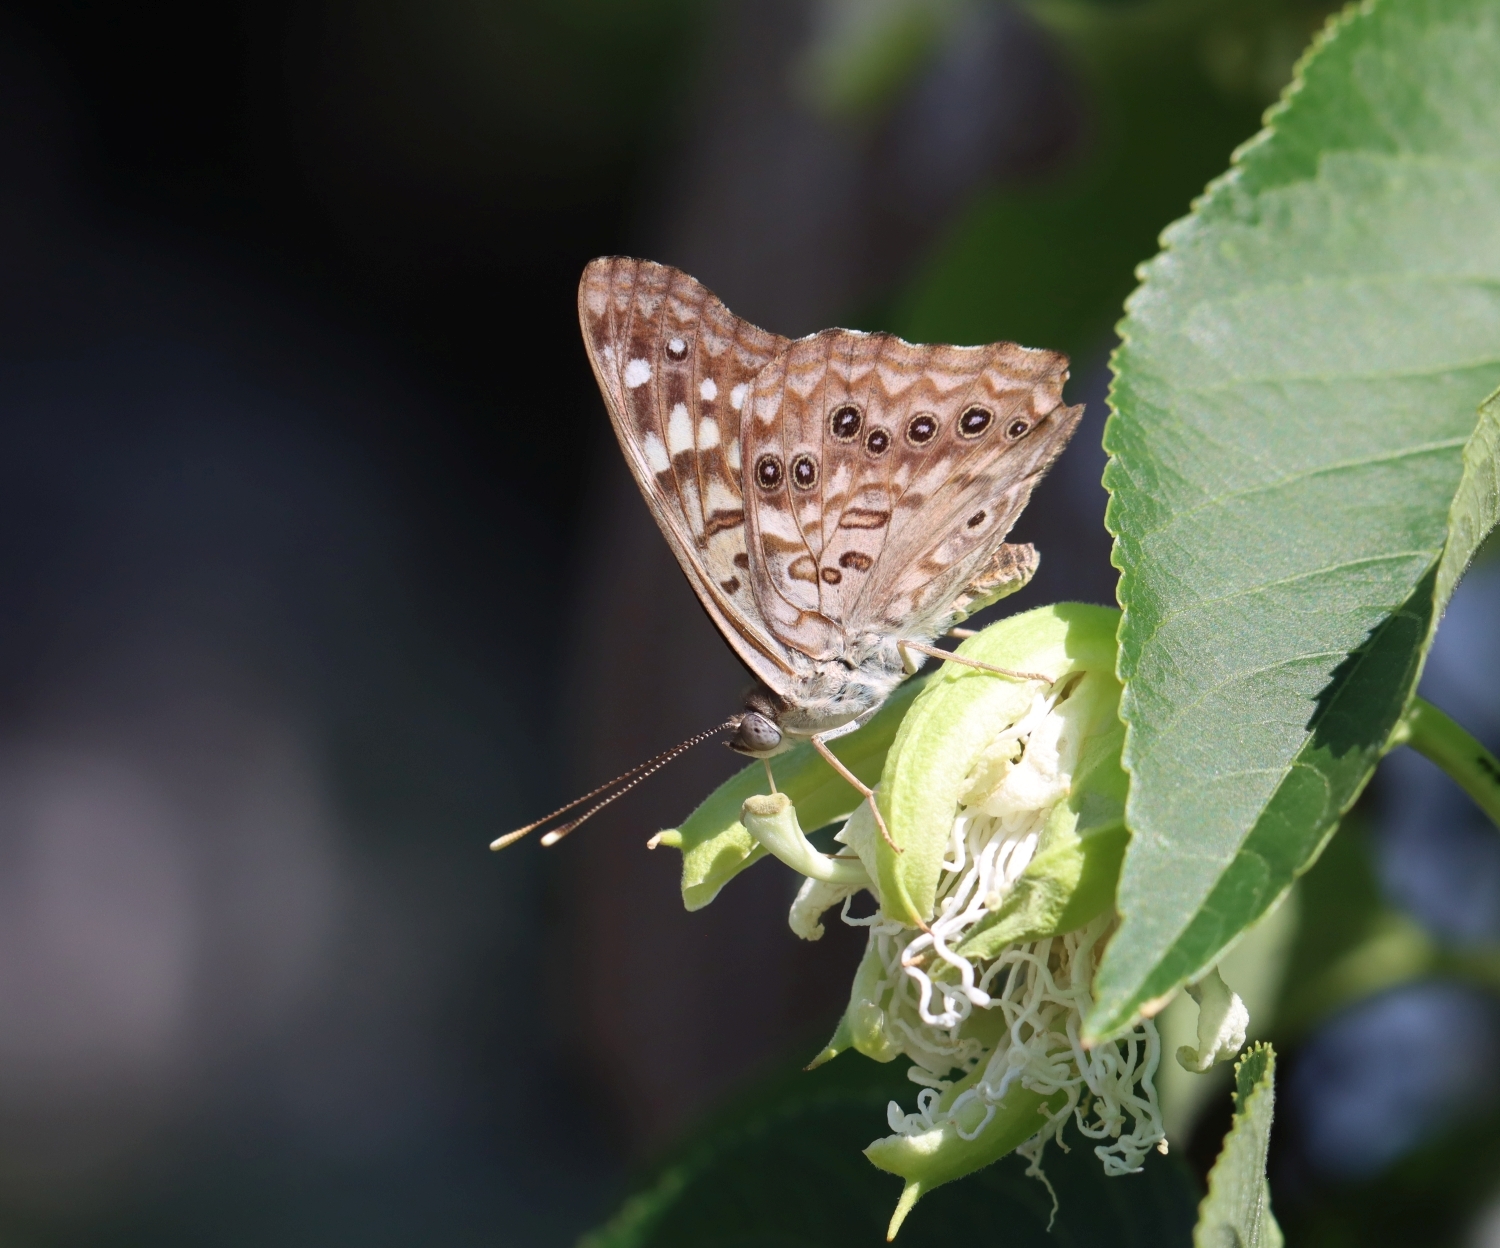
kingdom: Animalia
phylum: Arthropoda
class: Insecta
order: Lepidoptera
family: Nymphalidae
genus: Asterocampa
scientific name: Asterocampa celtis
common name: Hackberry emperor
